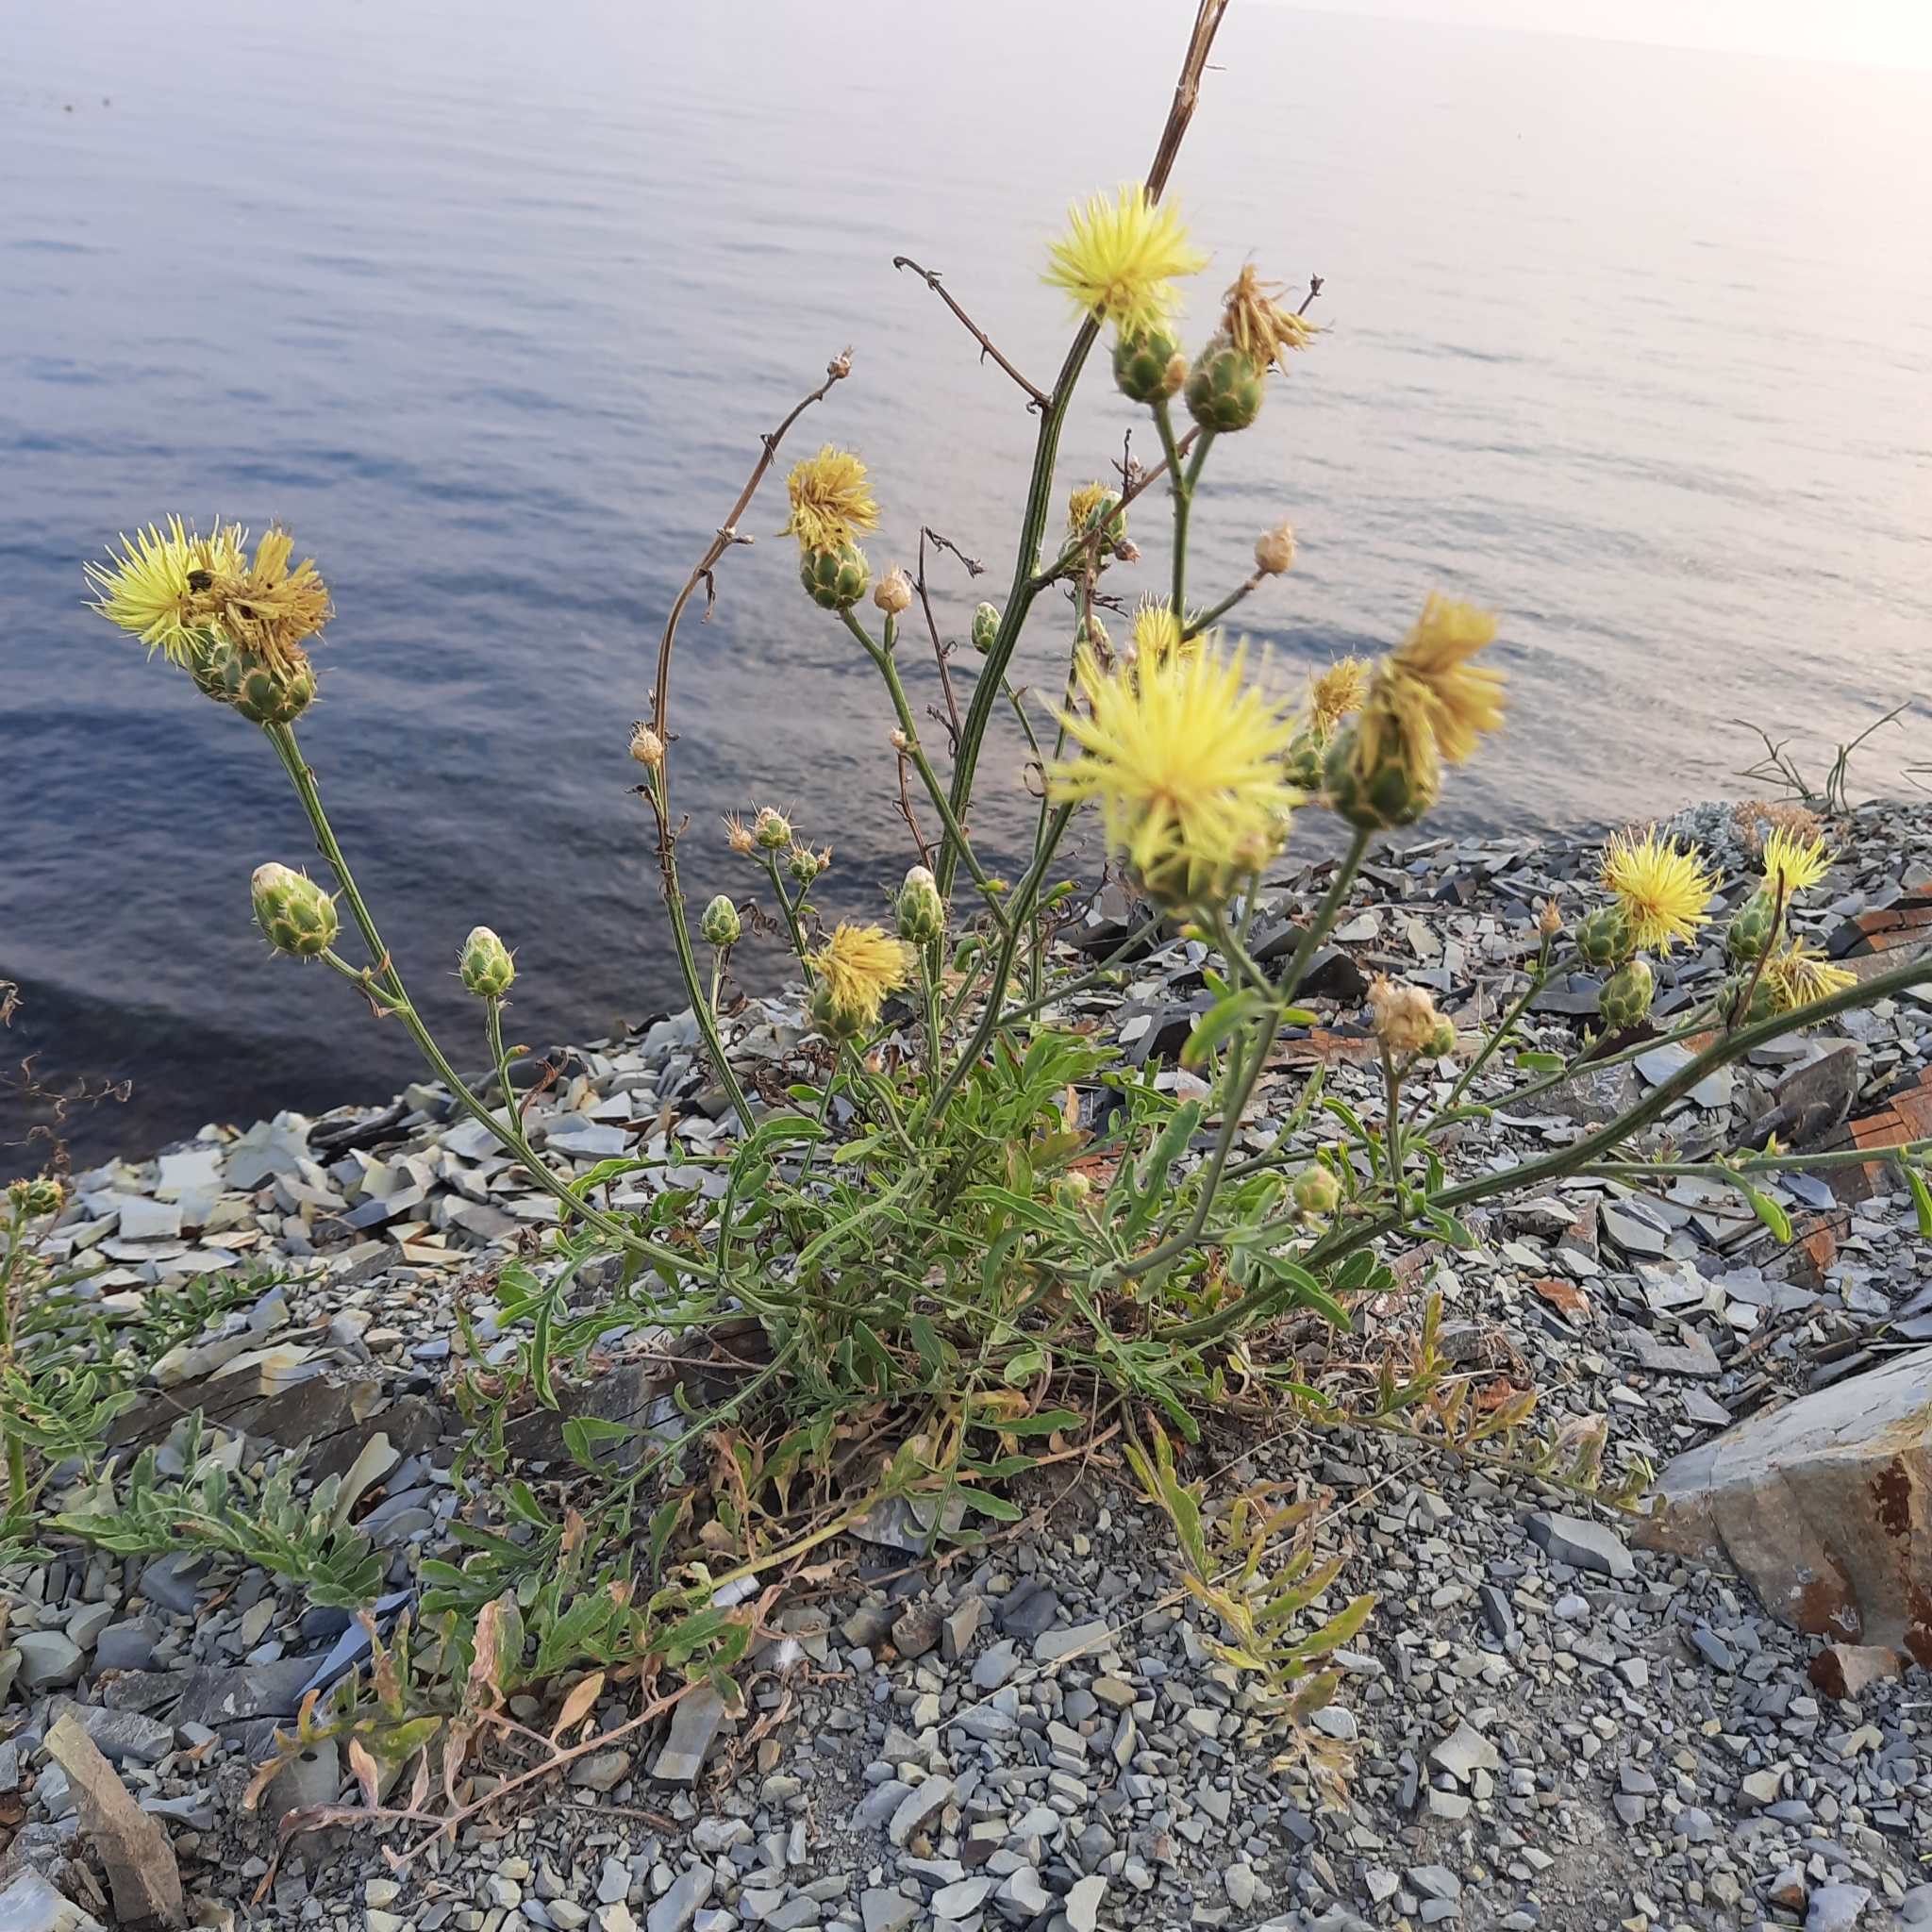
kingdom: Plantae
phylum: Tracheophyta
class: Magnoliopsida
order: Asterales
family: Asteraceae
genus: Centaurea
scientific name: Centaurea salonitana
